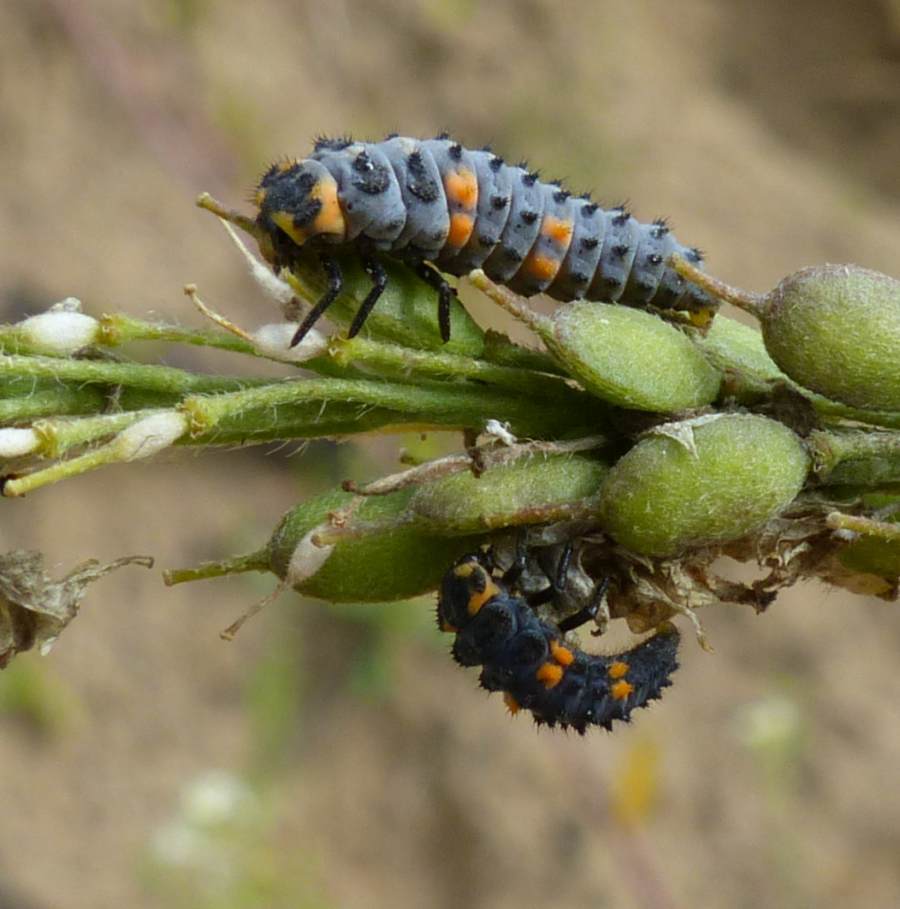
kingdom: Animalia
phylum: Arthropoda
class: Insecta
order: Coleoptera
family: Coccinellidae
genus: Coccinella
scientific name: Coccinella septempunctata
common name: Sevenspotted lady beetle
